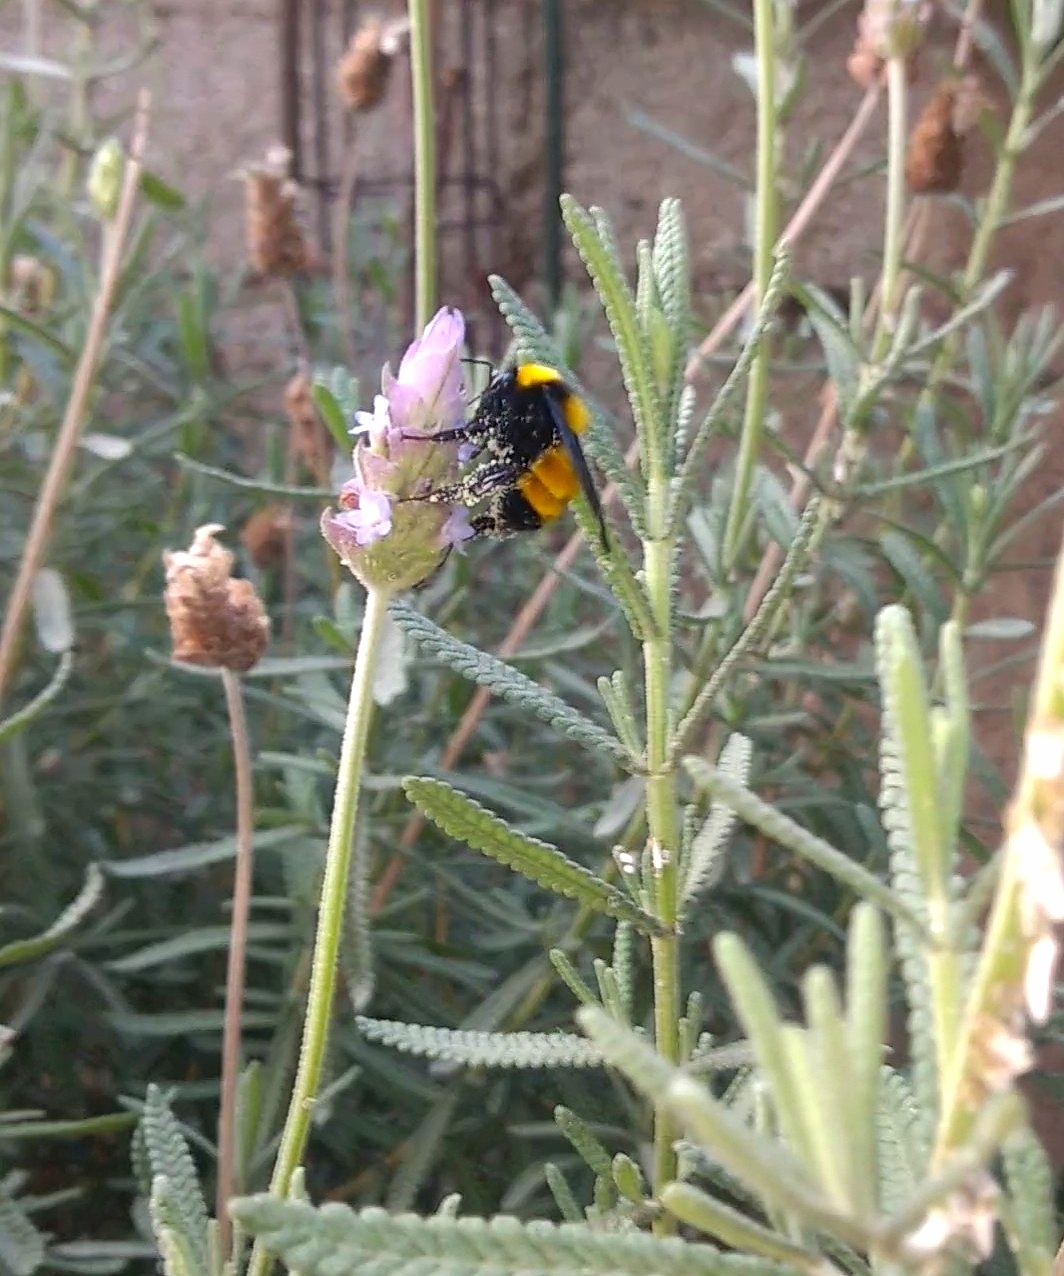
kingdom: Animalia
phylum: Arthropoda
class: Insecta
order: Hymenoptera
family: Apidae
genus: Bombus
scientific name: Bombus sonorus
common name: Sonoran bumble bee
